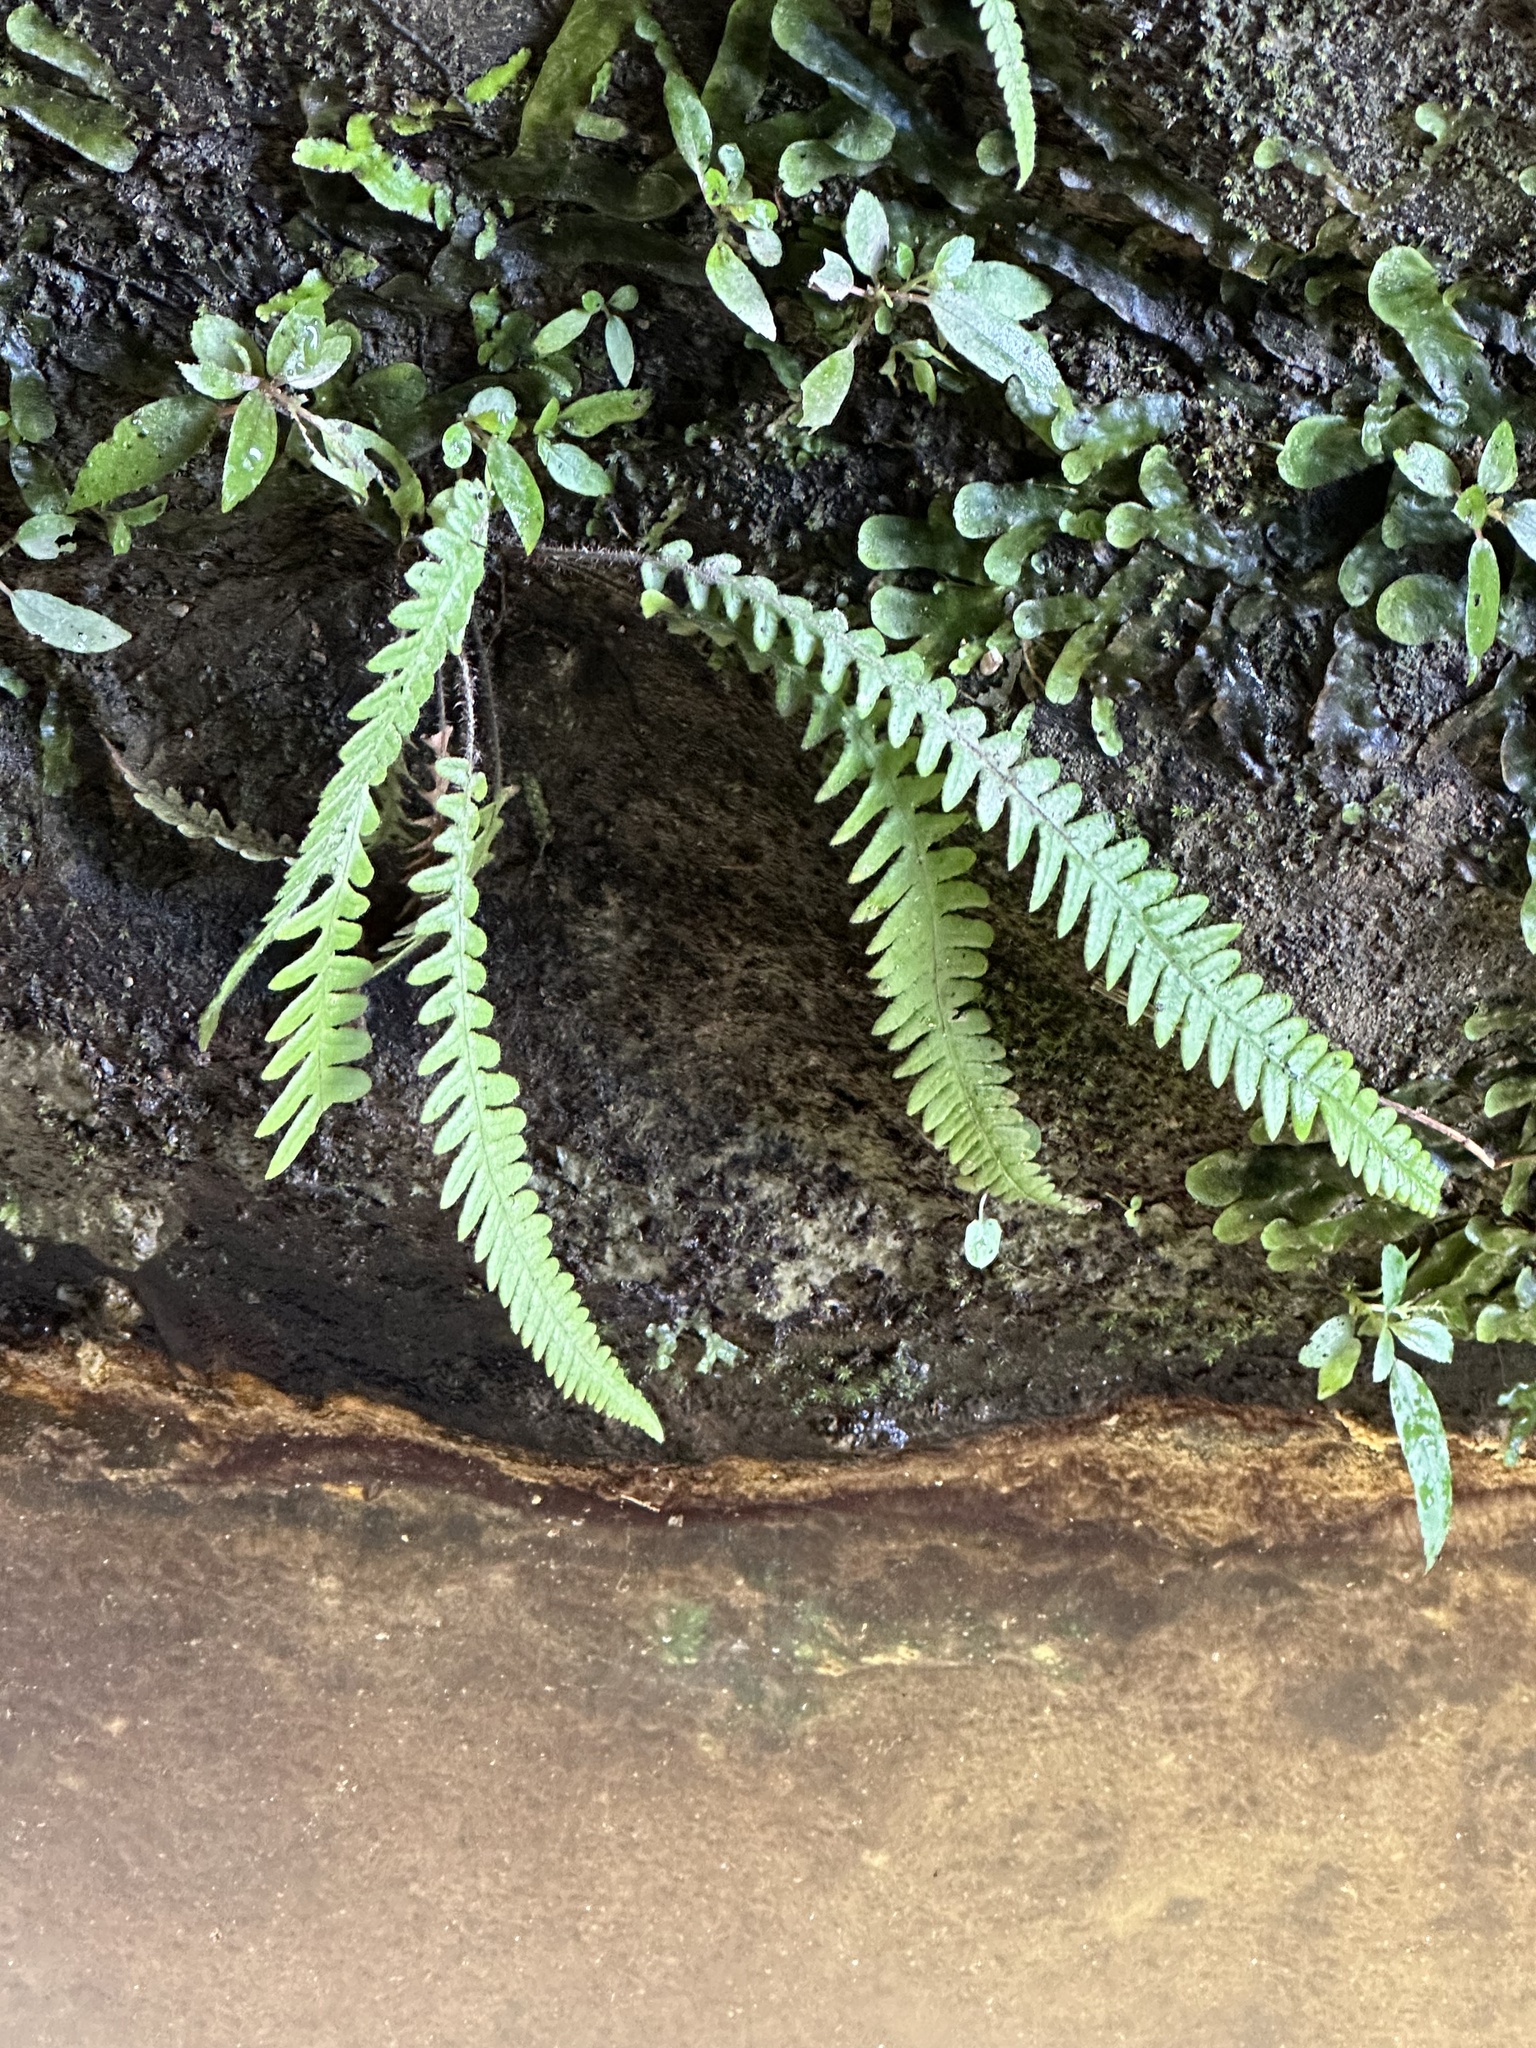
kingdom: Plantae
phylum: Tracheophyta
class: Polypodiopsida
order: Polypodiales
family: Thelypteridaceae
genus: Phegopteris
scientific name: Phegopteris decursive-pinnata
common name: Japanese beech fern
